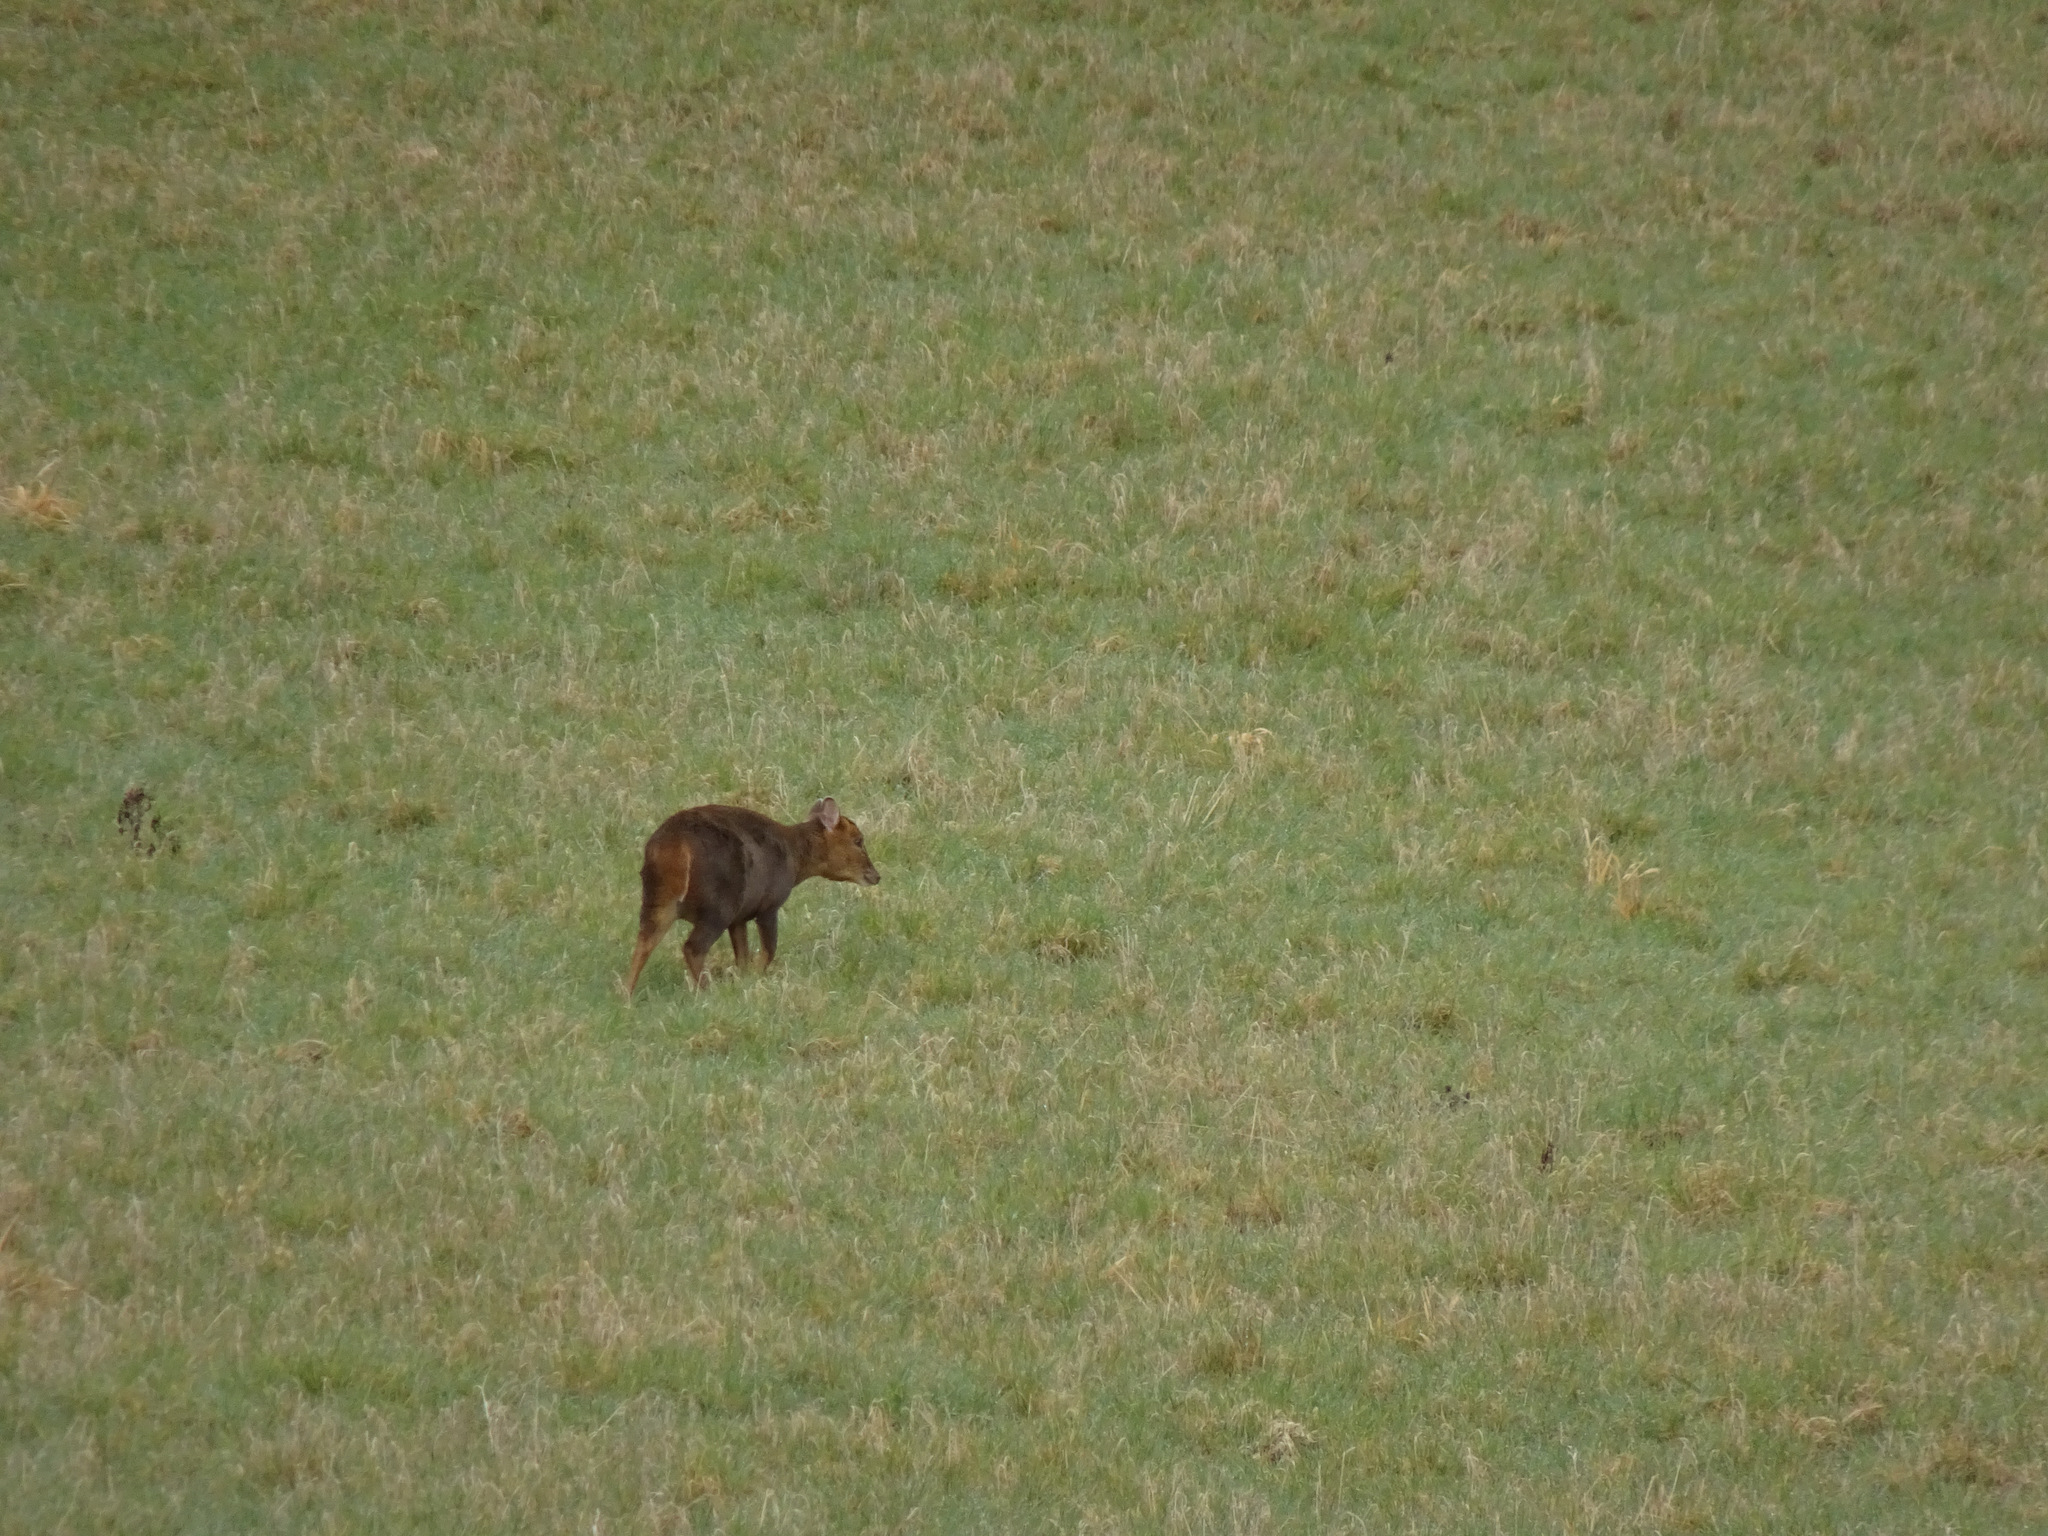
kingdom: Animalia
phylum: Chordata
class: Mammalia
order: Artiodactyla
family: Cervidae
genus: Muntiacus
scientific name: Muntiacus reevesi
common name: Reeves' muntjac
